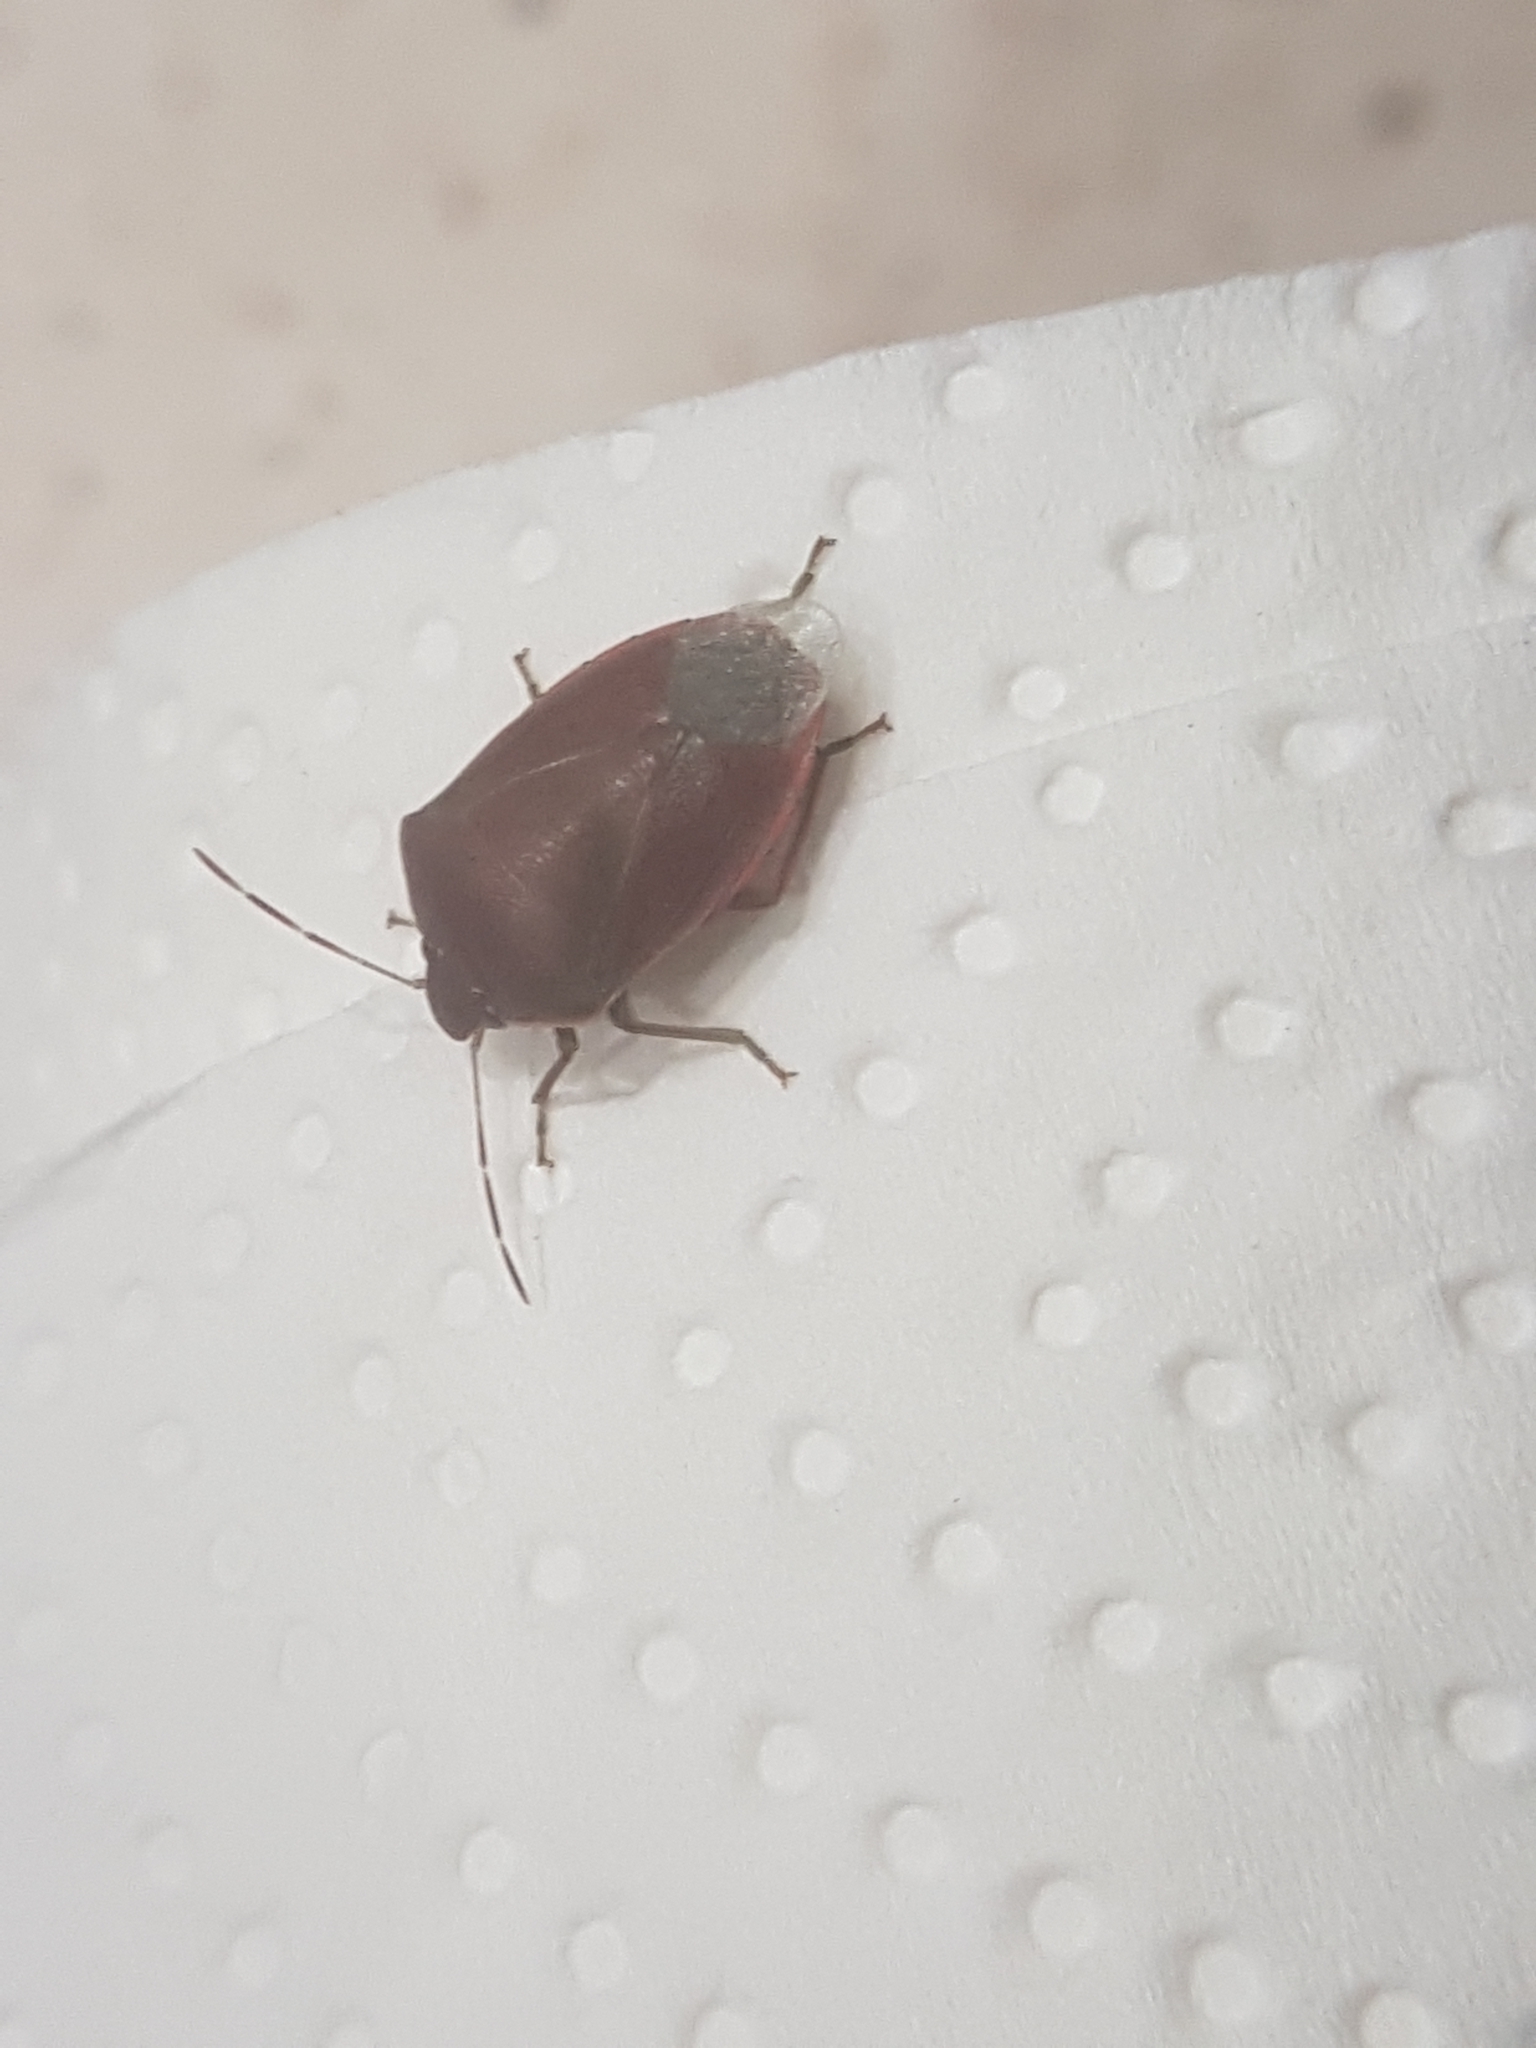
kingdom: Animalia
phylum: Arthropoda
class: Insecta
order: Hemiptera
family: Pentatomidae
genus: Acrosternum
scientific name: Acrosternum heegeri
